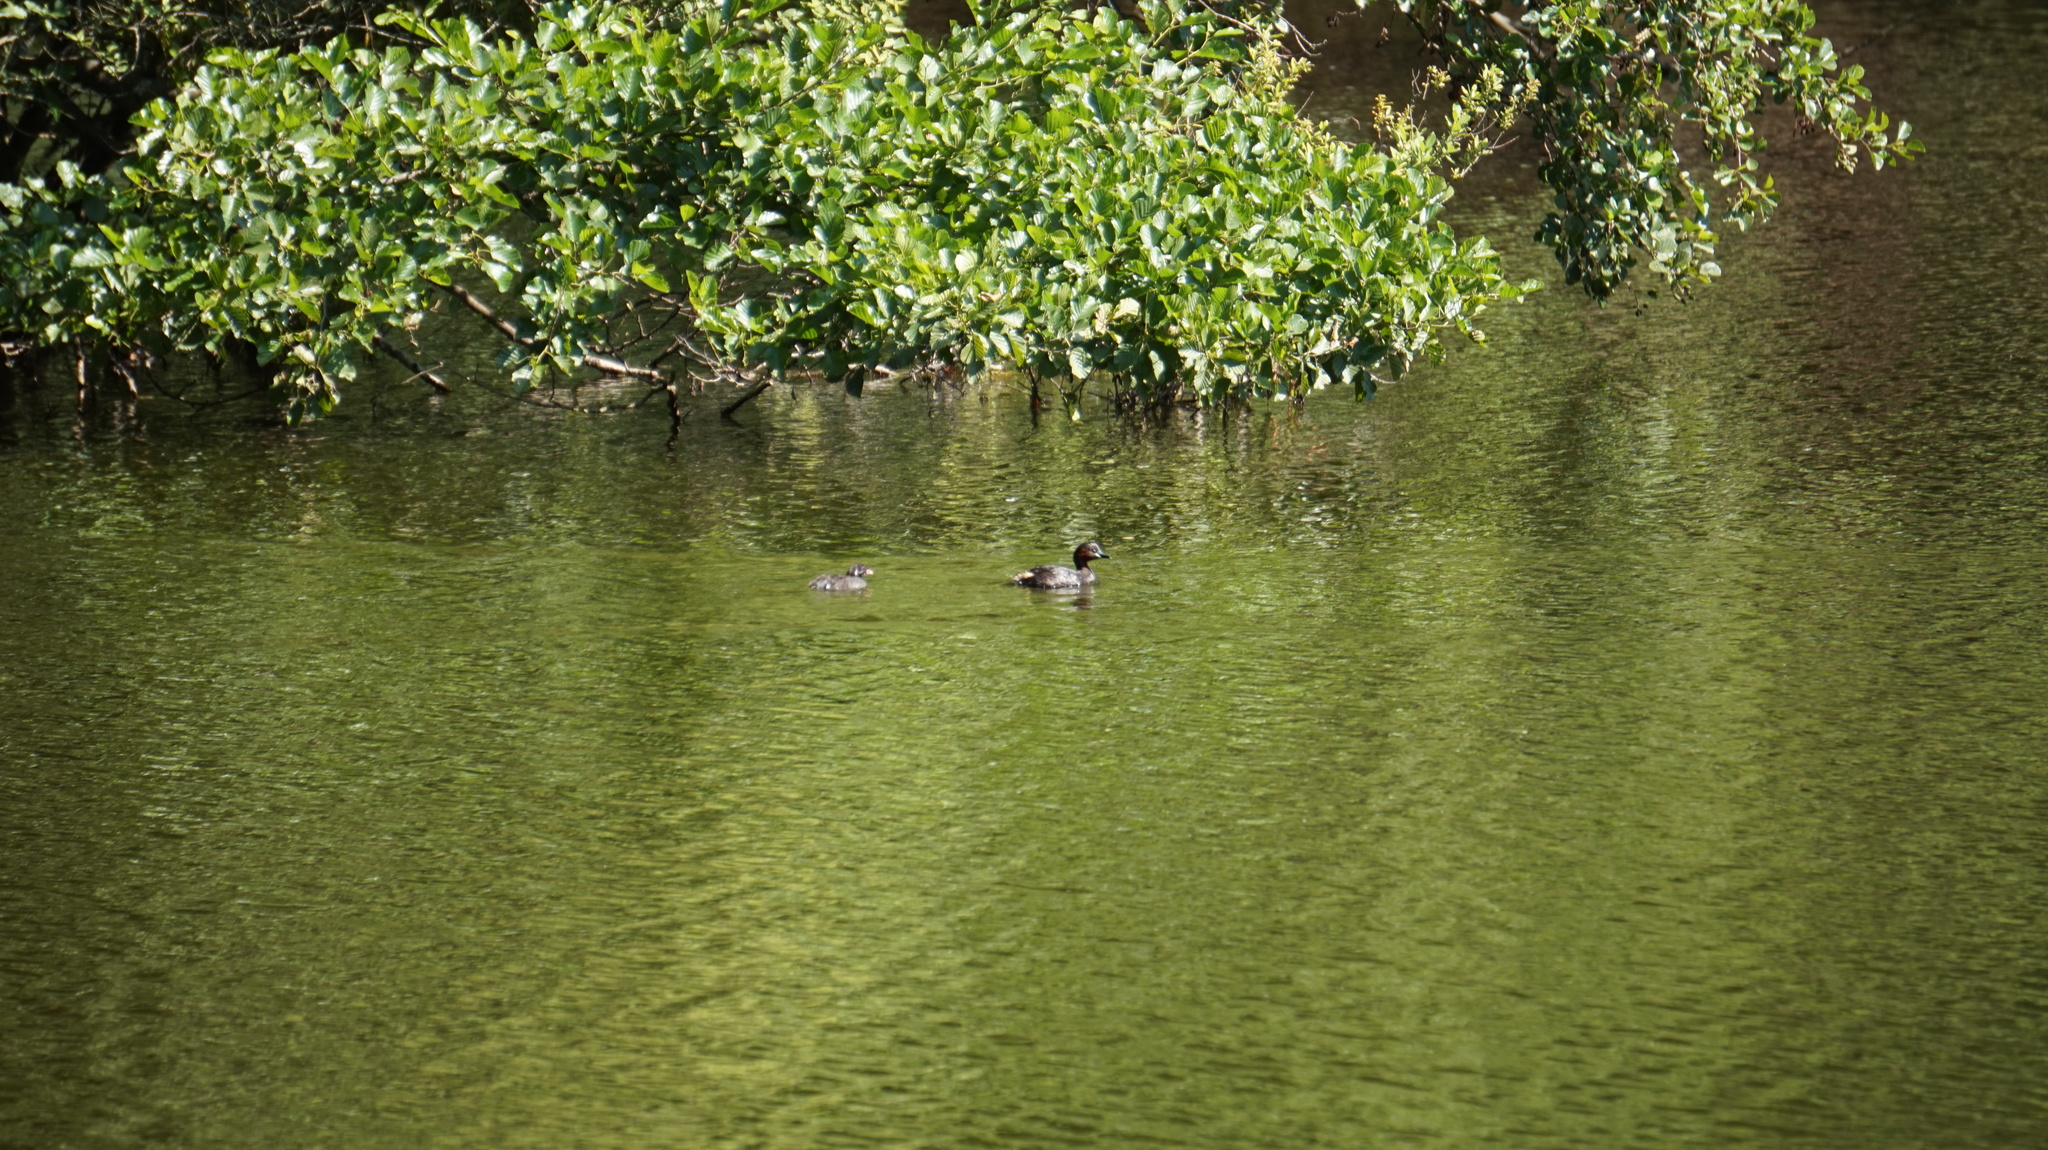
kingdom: Animalia
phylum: Chordata
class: Aves
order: Podicipediformes
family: Podicipedidae
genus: Tachybaptus
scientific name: Tachybaptus ruficollis
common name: Little grebe
